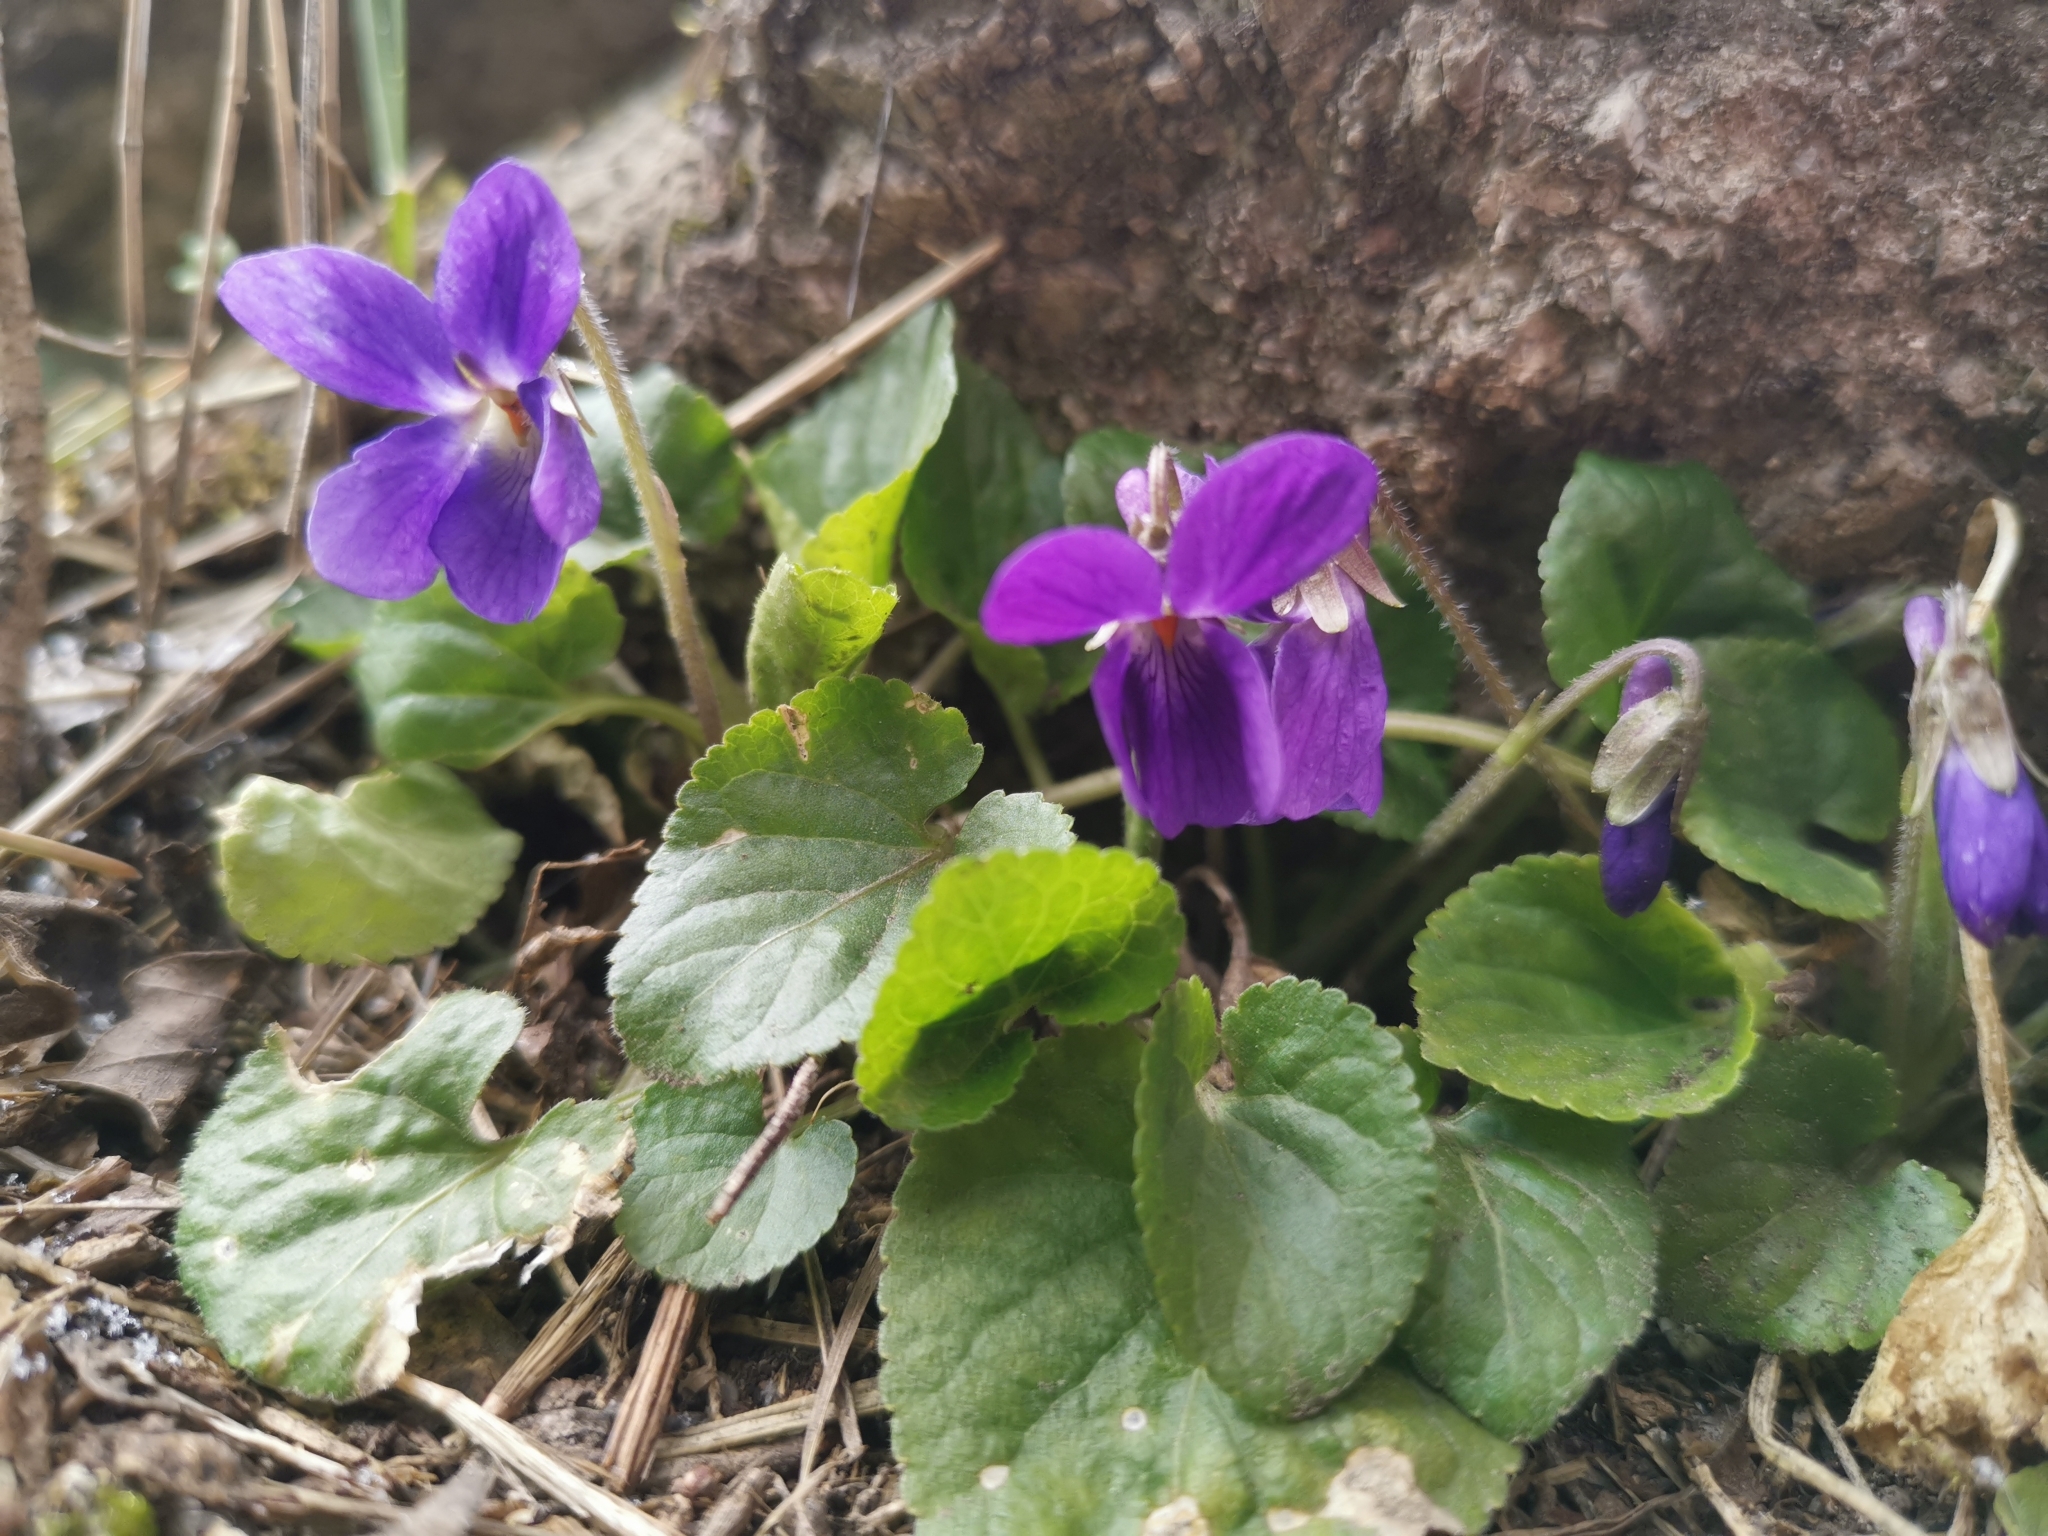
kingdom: Plantae
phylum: Tracheophyta
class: Magnoliopsida
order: Malpighiales
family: Violaceae
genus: Viola
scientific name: Viola odorata
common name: Sweet violet
